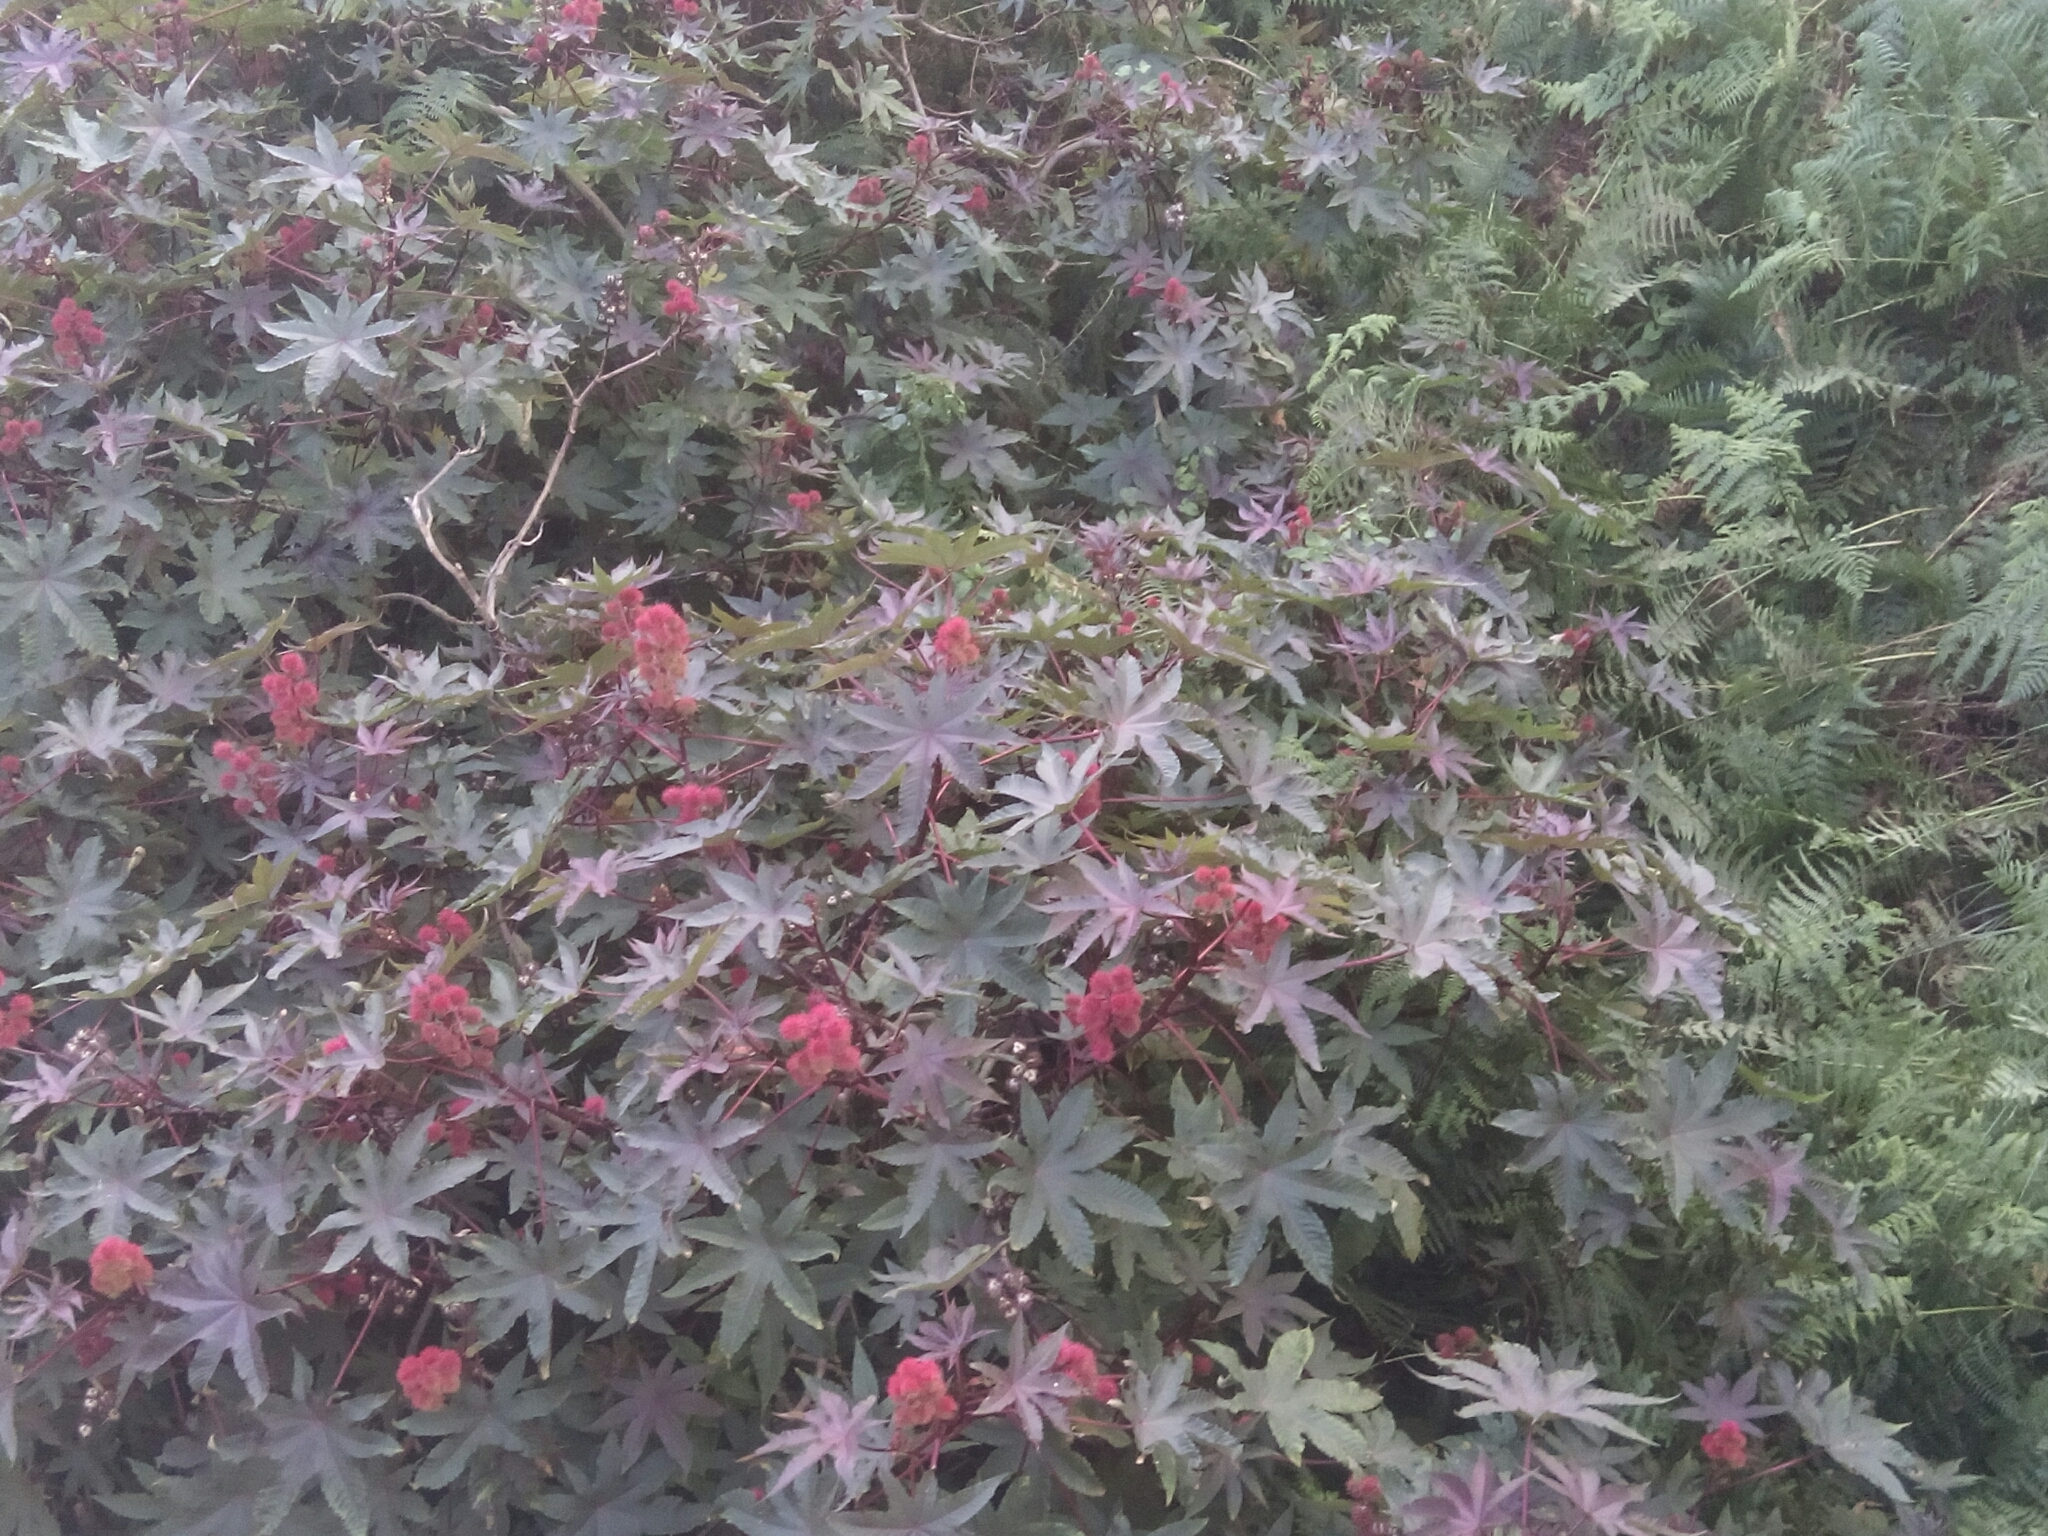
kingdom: Plantae
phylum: Tracheophyta
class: Magnoliopsida
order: Malpighiales
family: Euphorbiaceae
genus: Ricinus
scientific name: Ricinus communis
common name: Castor-oil-plant
